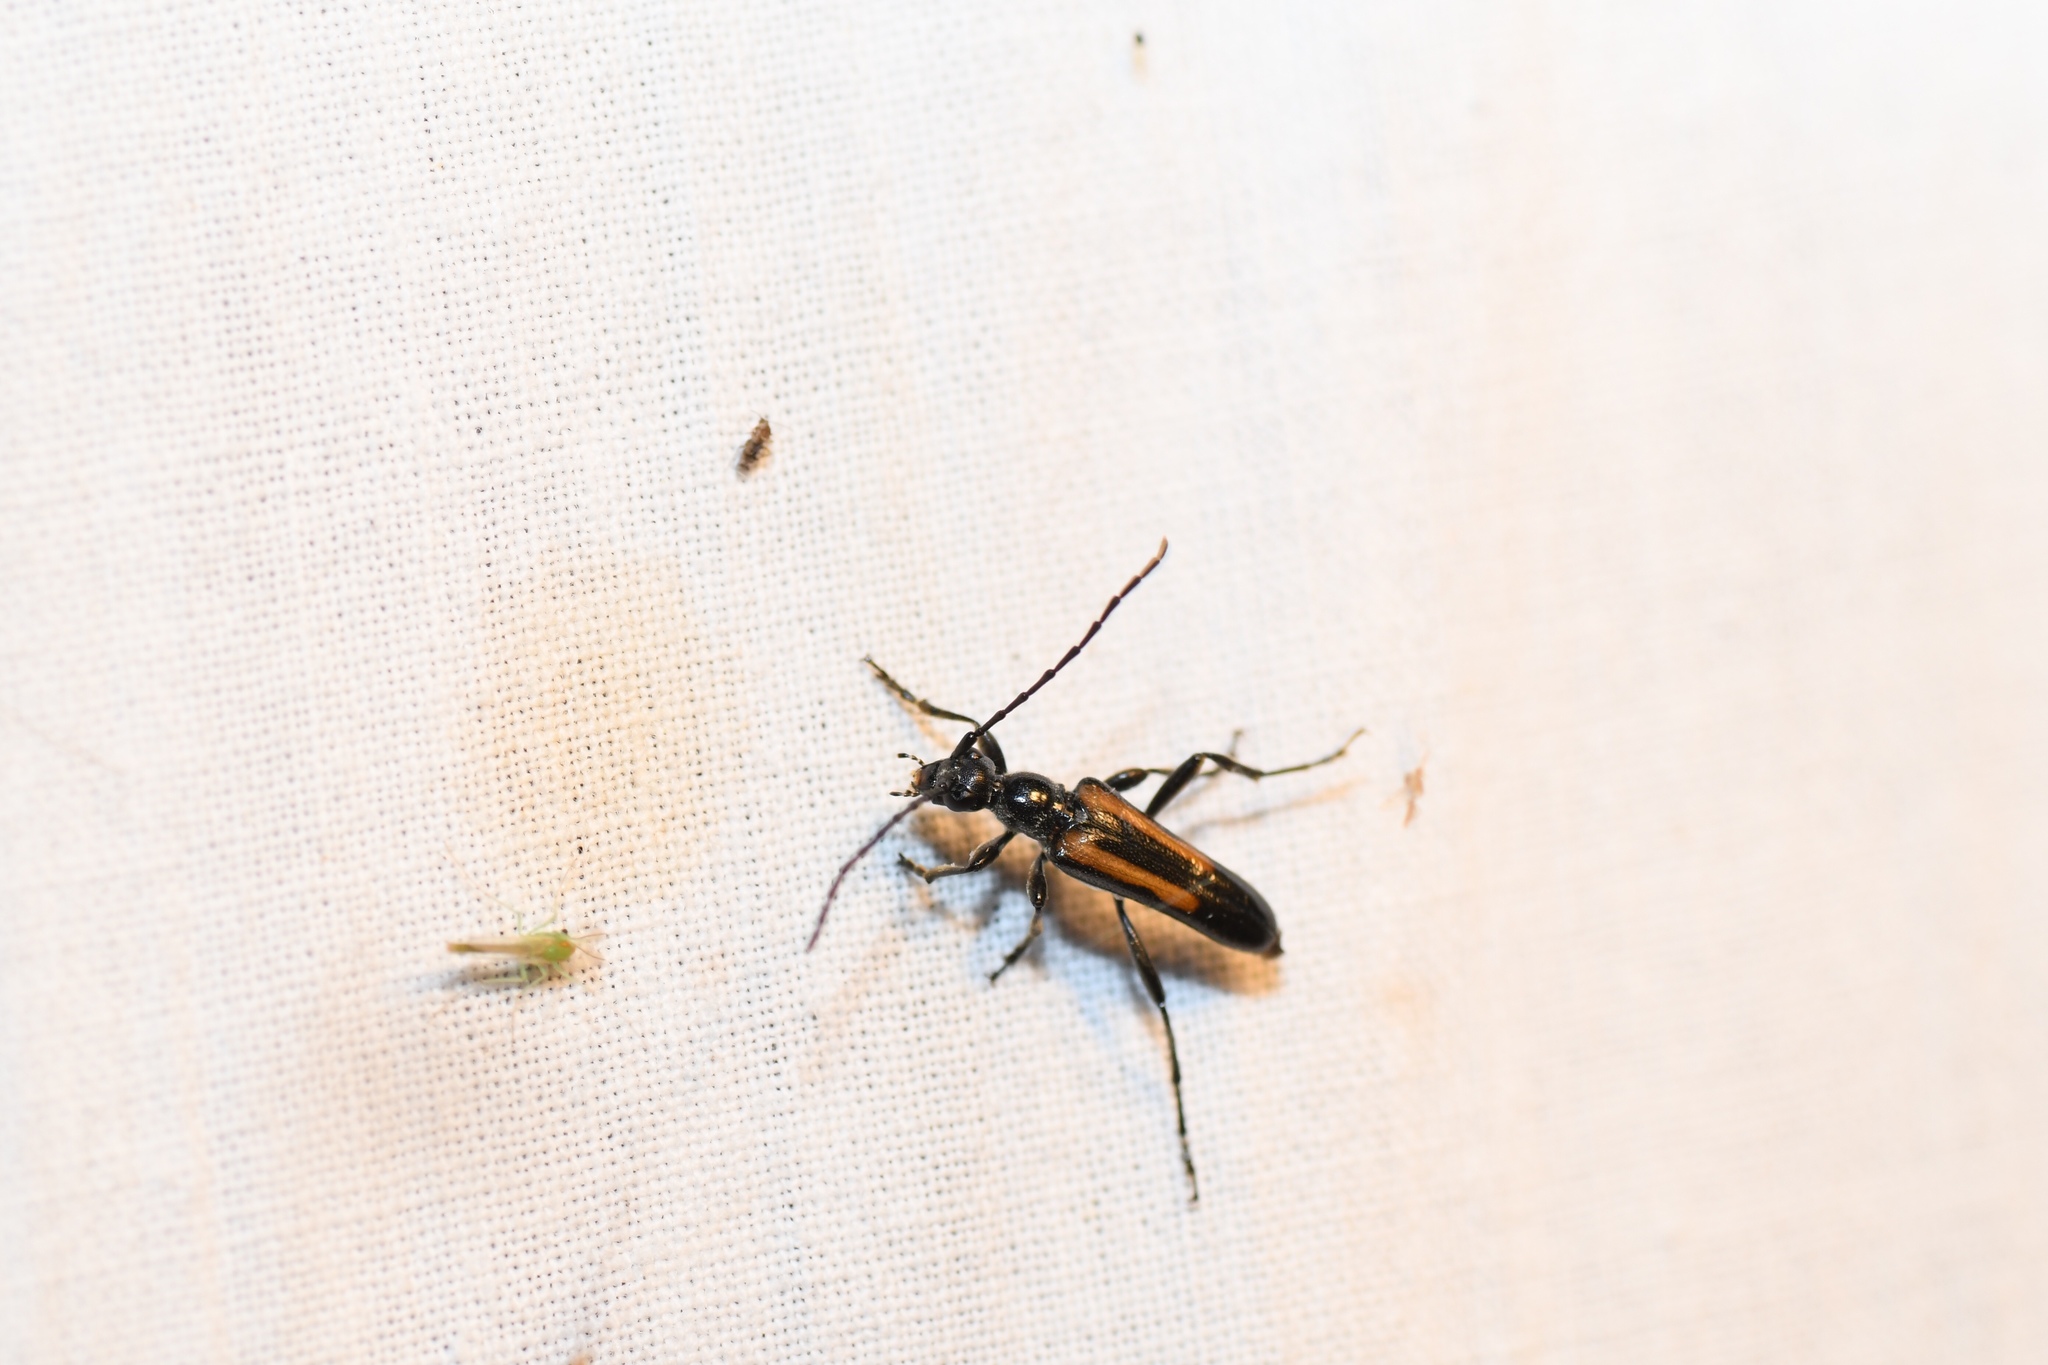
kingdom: Animalia
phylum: Arthropoda
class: Insecta
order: Coleoptera
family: Cerambycidae
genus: Strangalepta
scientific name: Strangalepta abbreviata
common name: Strangalepta flower longhorn beetle
